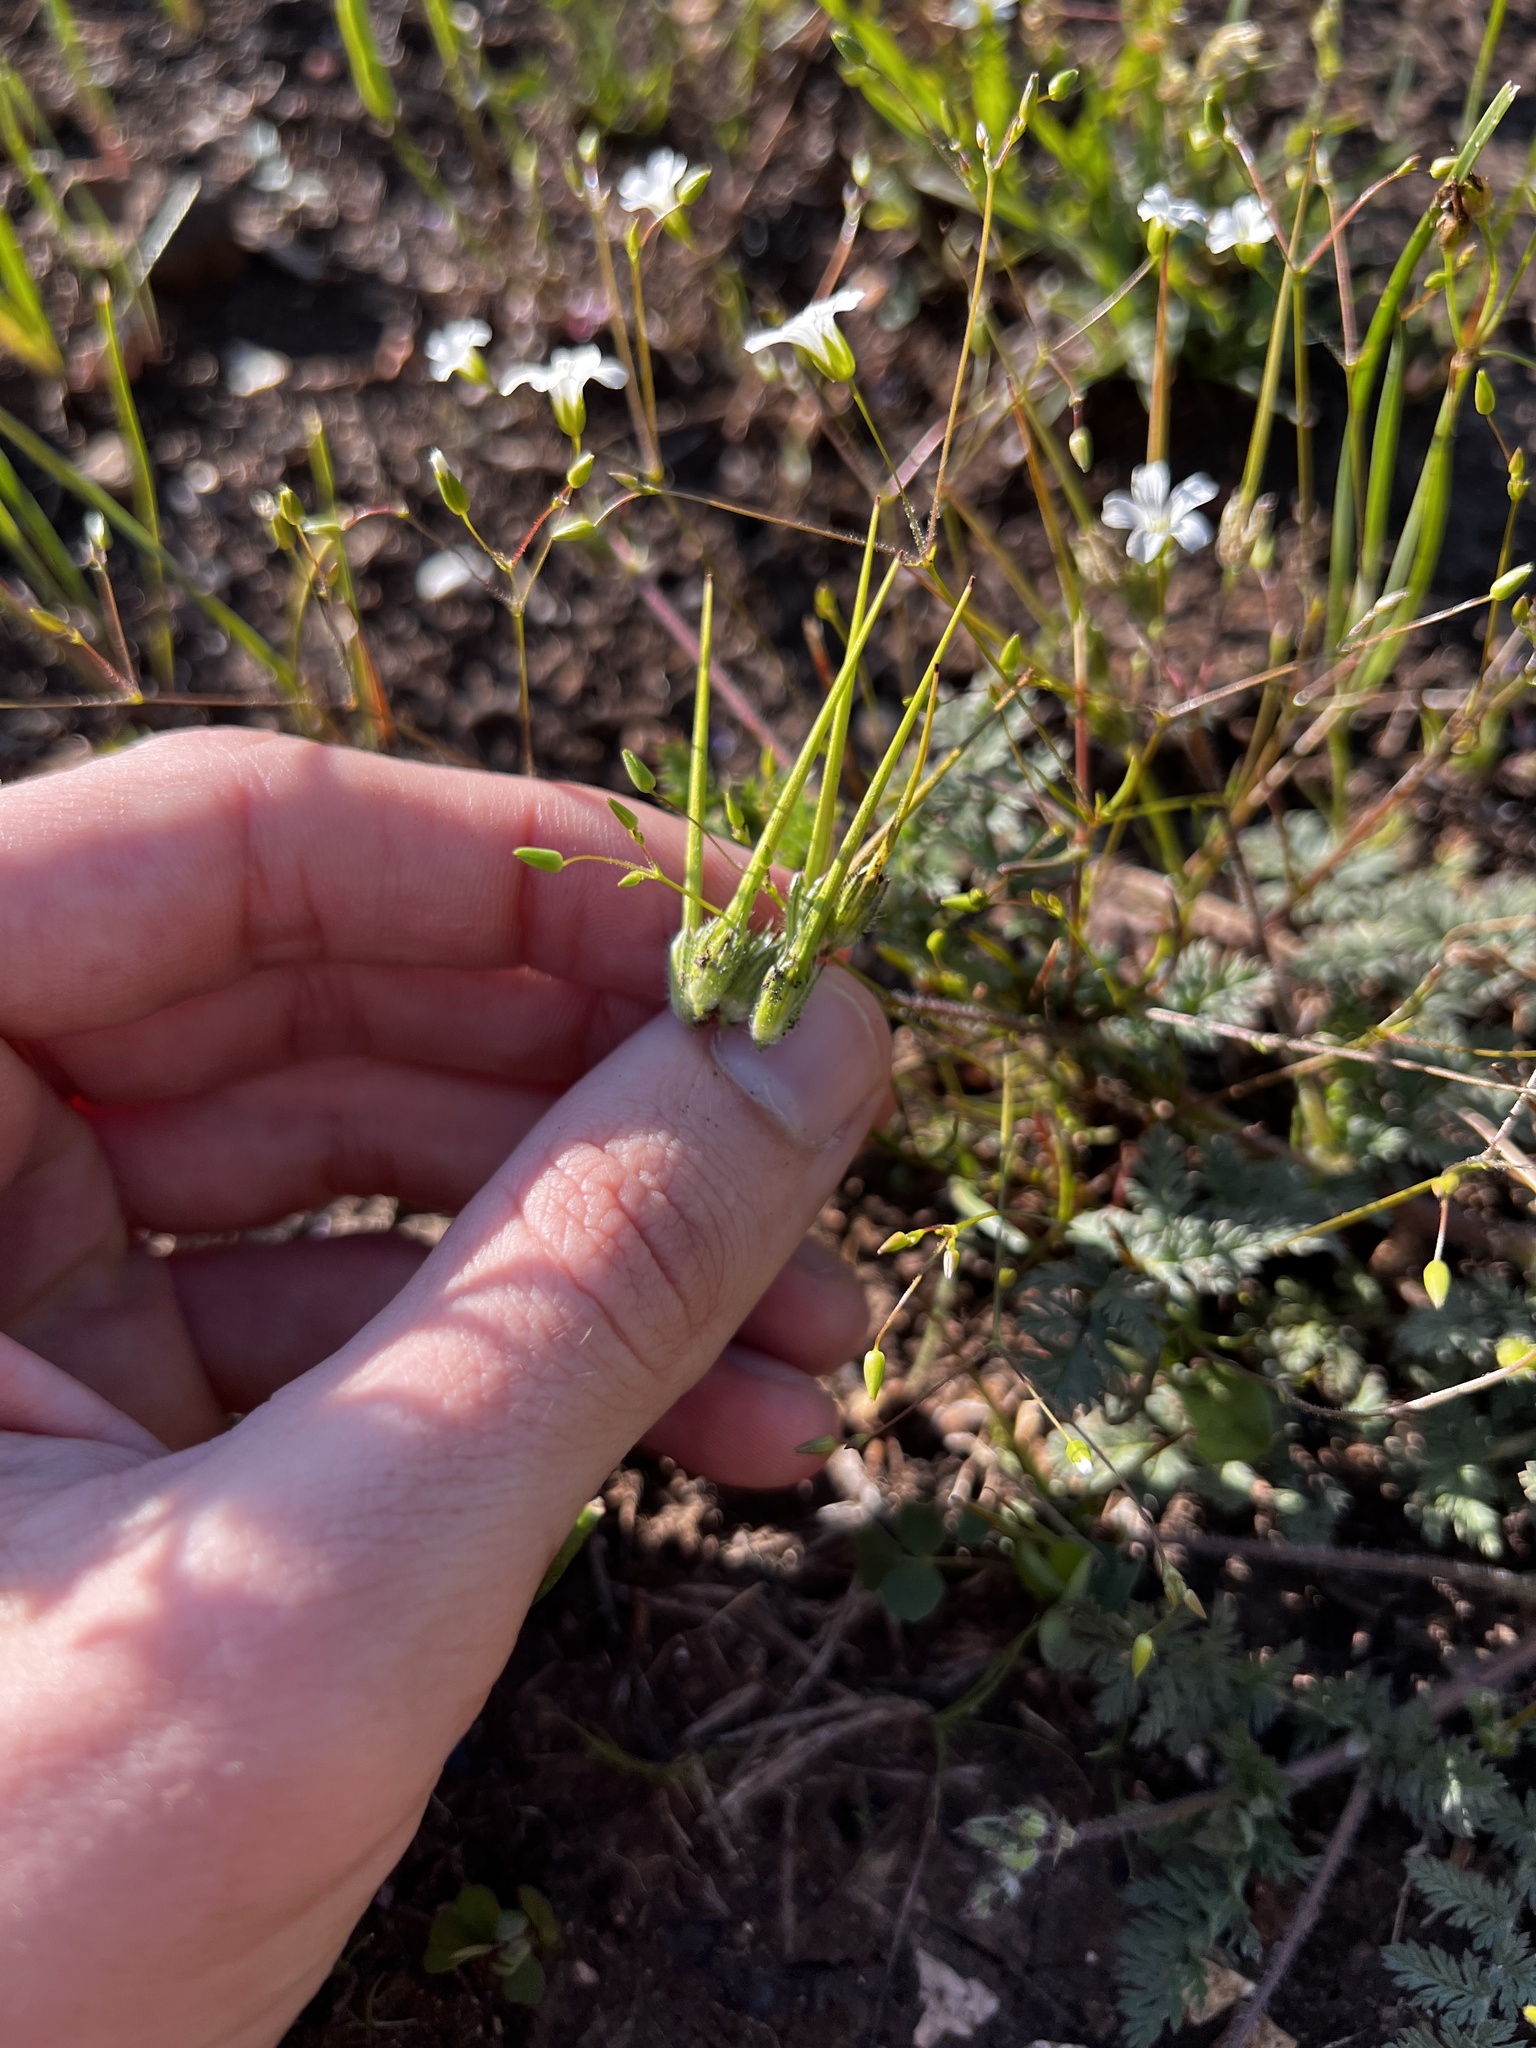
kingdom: Plantae
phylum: Tracheophyta
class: Magnoliopsida
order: Geraniales
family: Geraniaceae
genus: Erodium
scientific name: Erodium cicutarium
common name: Common stork's-bill
